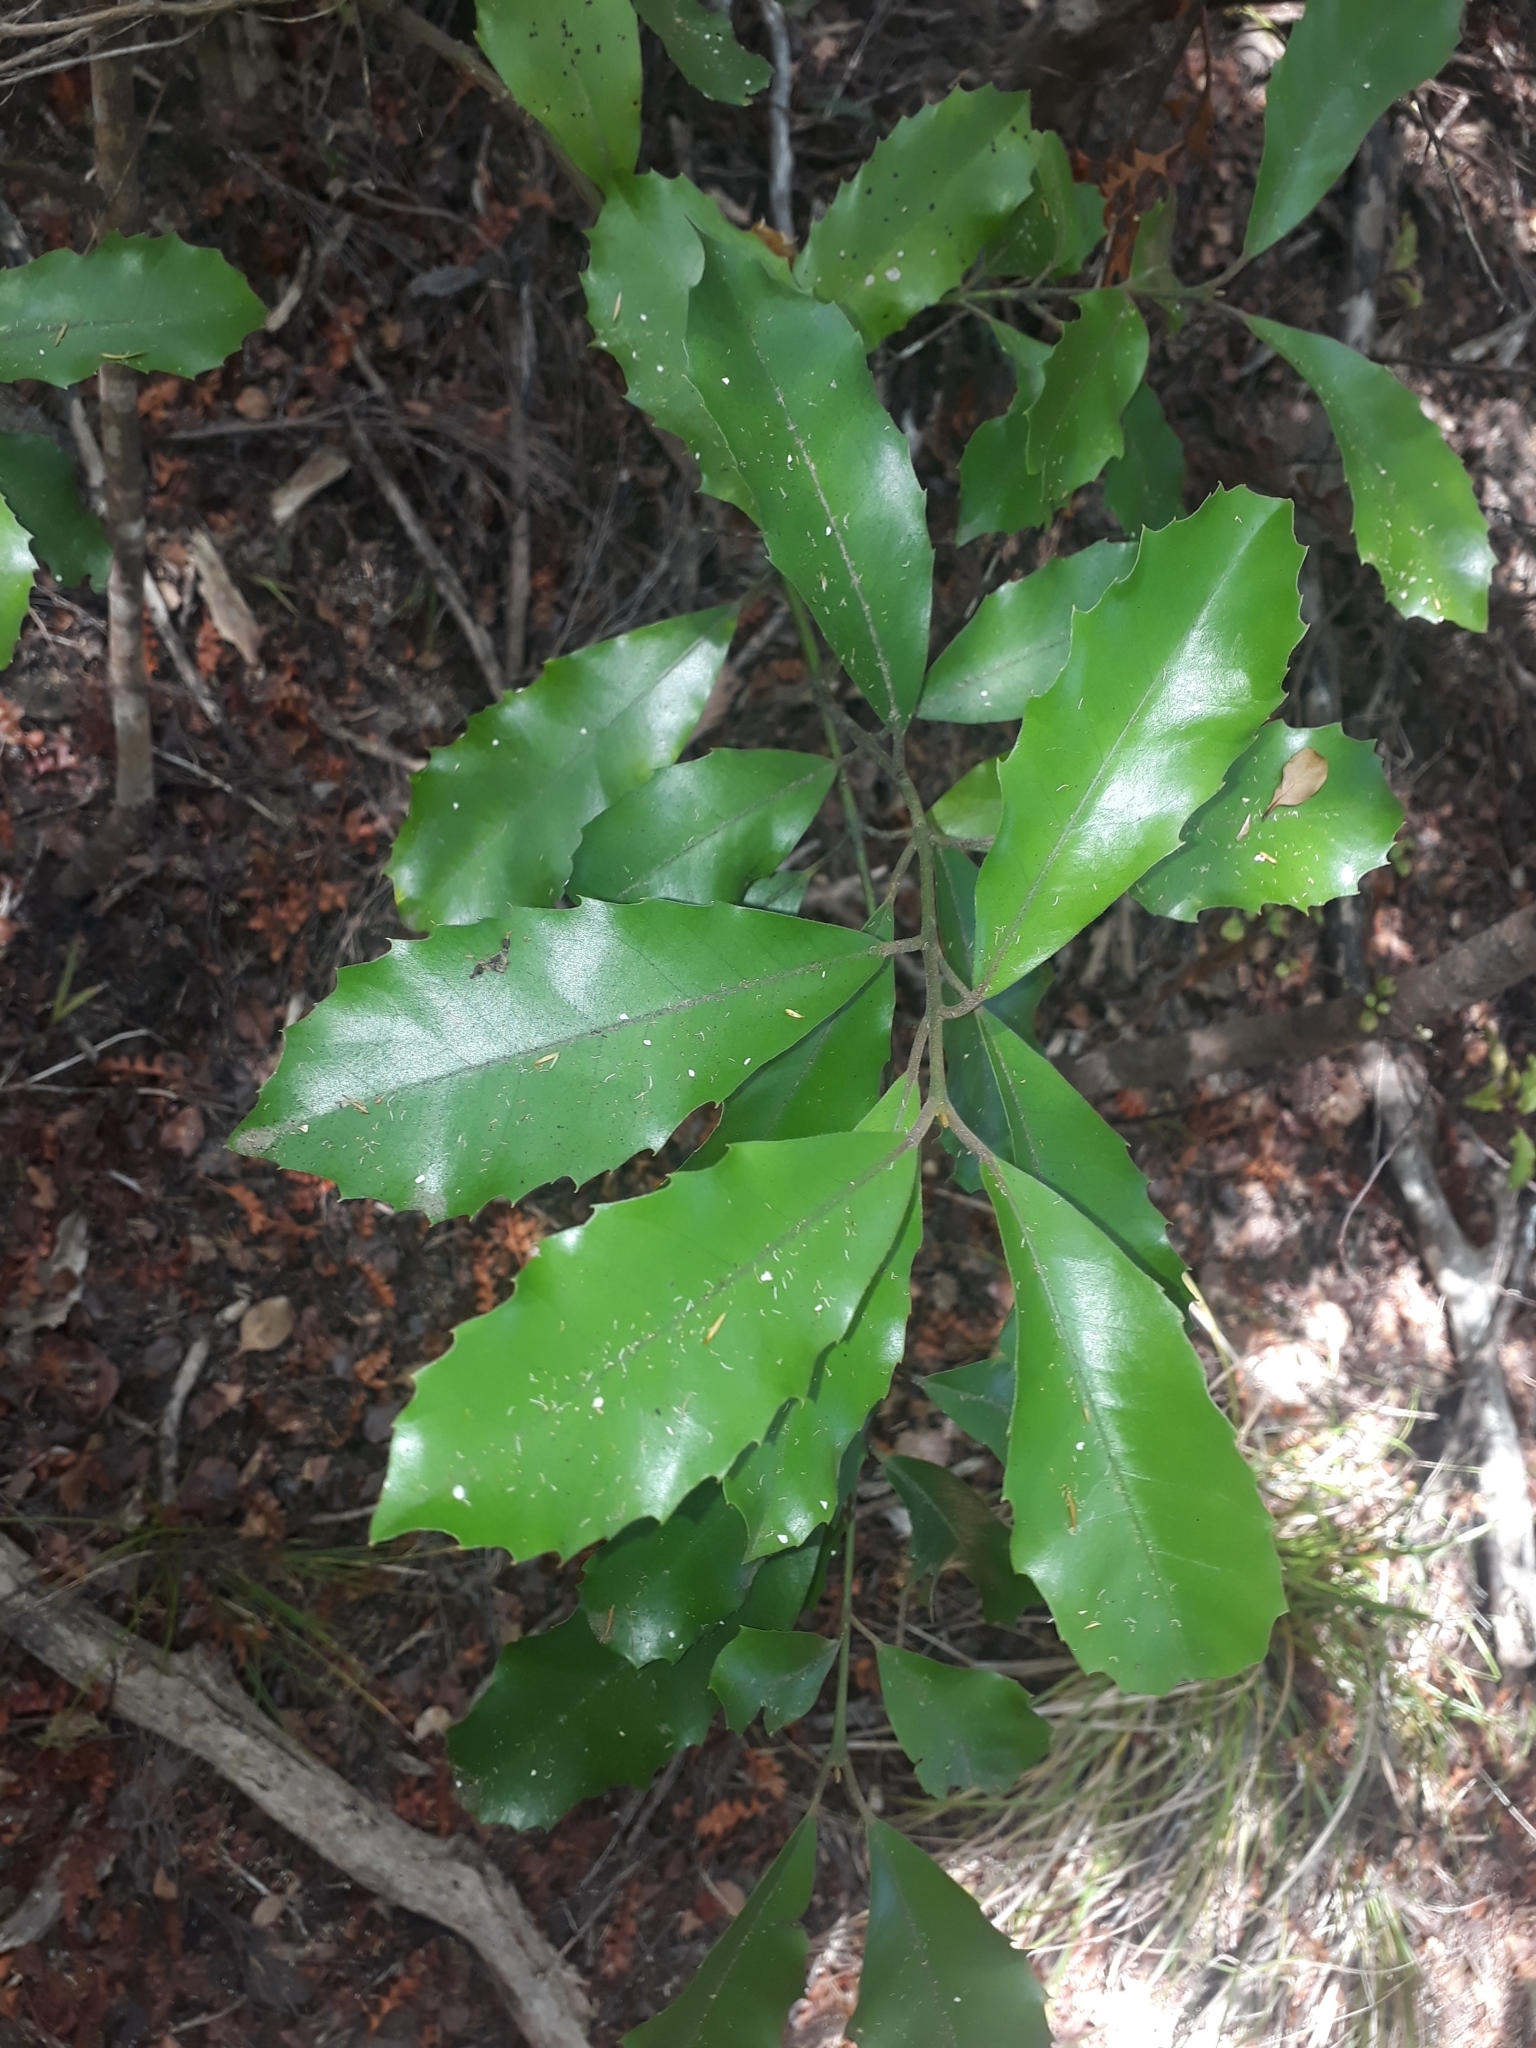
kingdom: Plantae
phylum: Tracheophyta
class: Magnoliopsida
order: Laurales
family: Monimiaceae
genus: Hedycarya
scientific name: Hedycarya arborea
